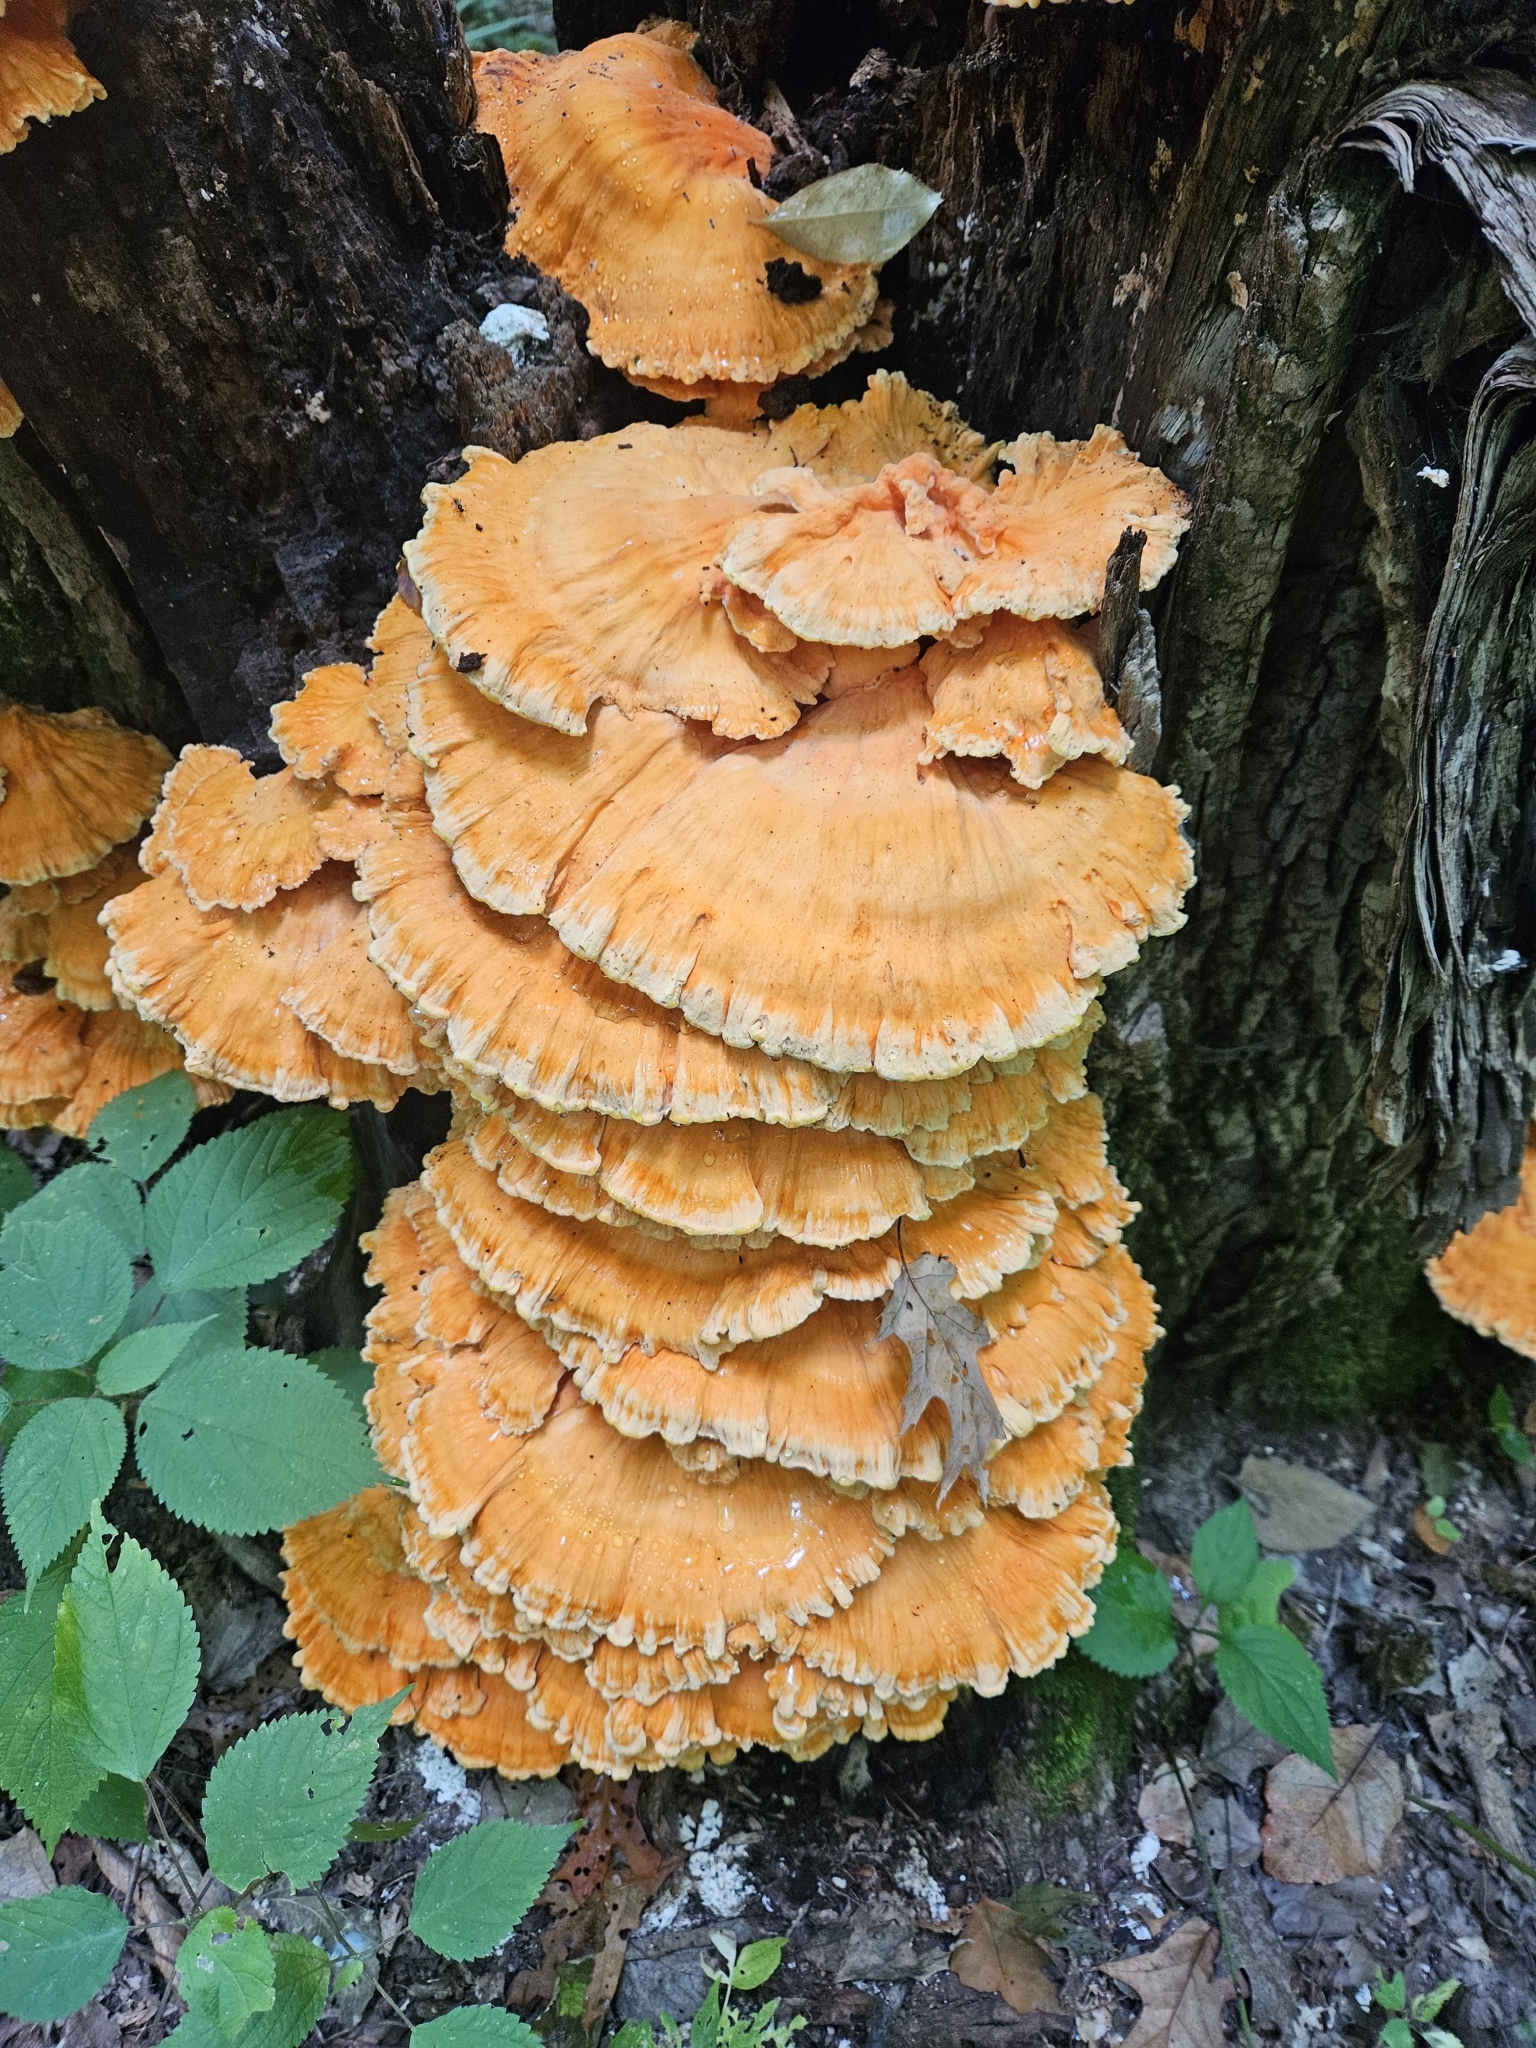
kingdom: Fungi
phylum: Basidiomycota
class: Agaricomycetes
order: Polyporales
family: Laetiporaceae
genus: Laetiporus
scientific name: Laetiporus sulphureus
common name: Chicken of the woods
